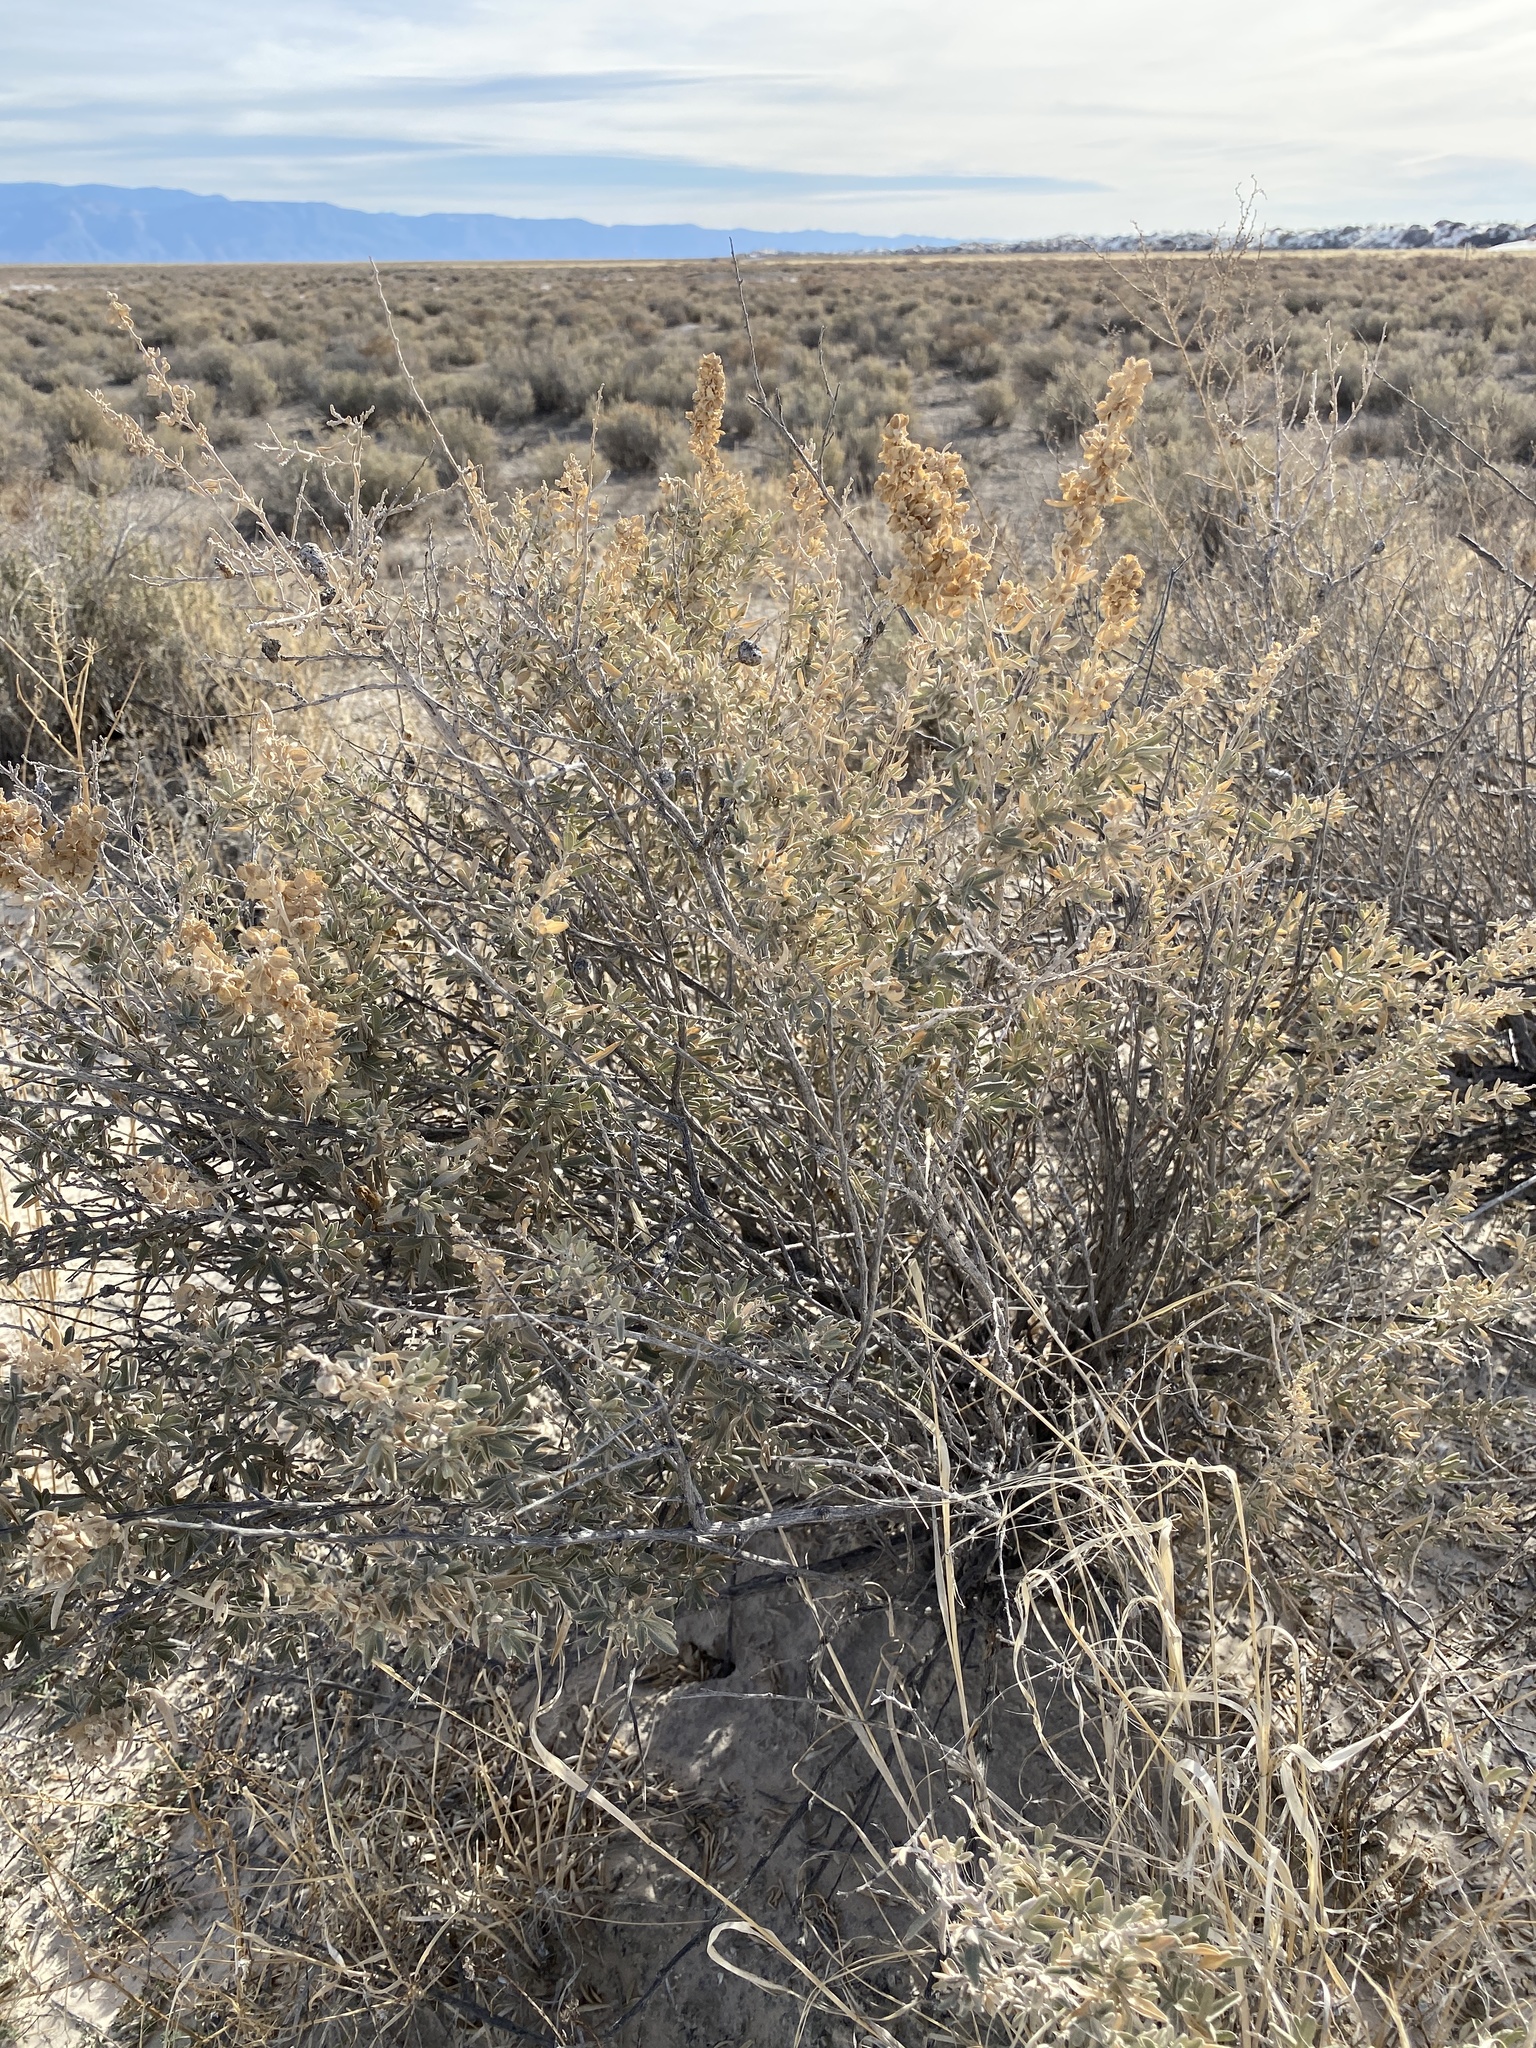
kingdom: Plantae
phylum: Tracheophyta
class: Magnoliopsida
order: Caryophyllales
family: Amaranthaceae
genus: Atriplex
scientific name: Atriplex canescens
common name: Four-wing saltbush
